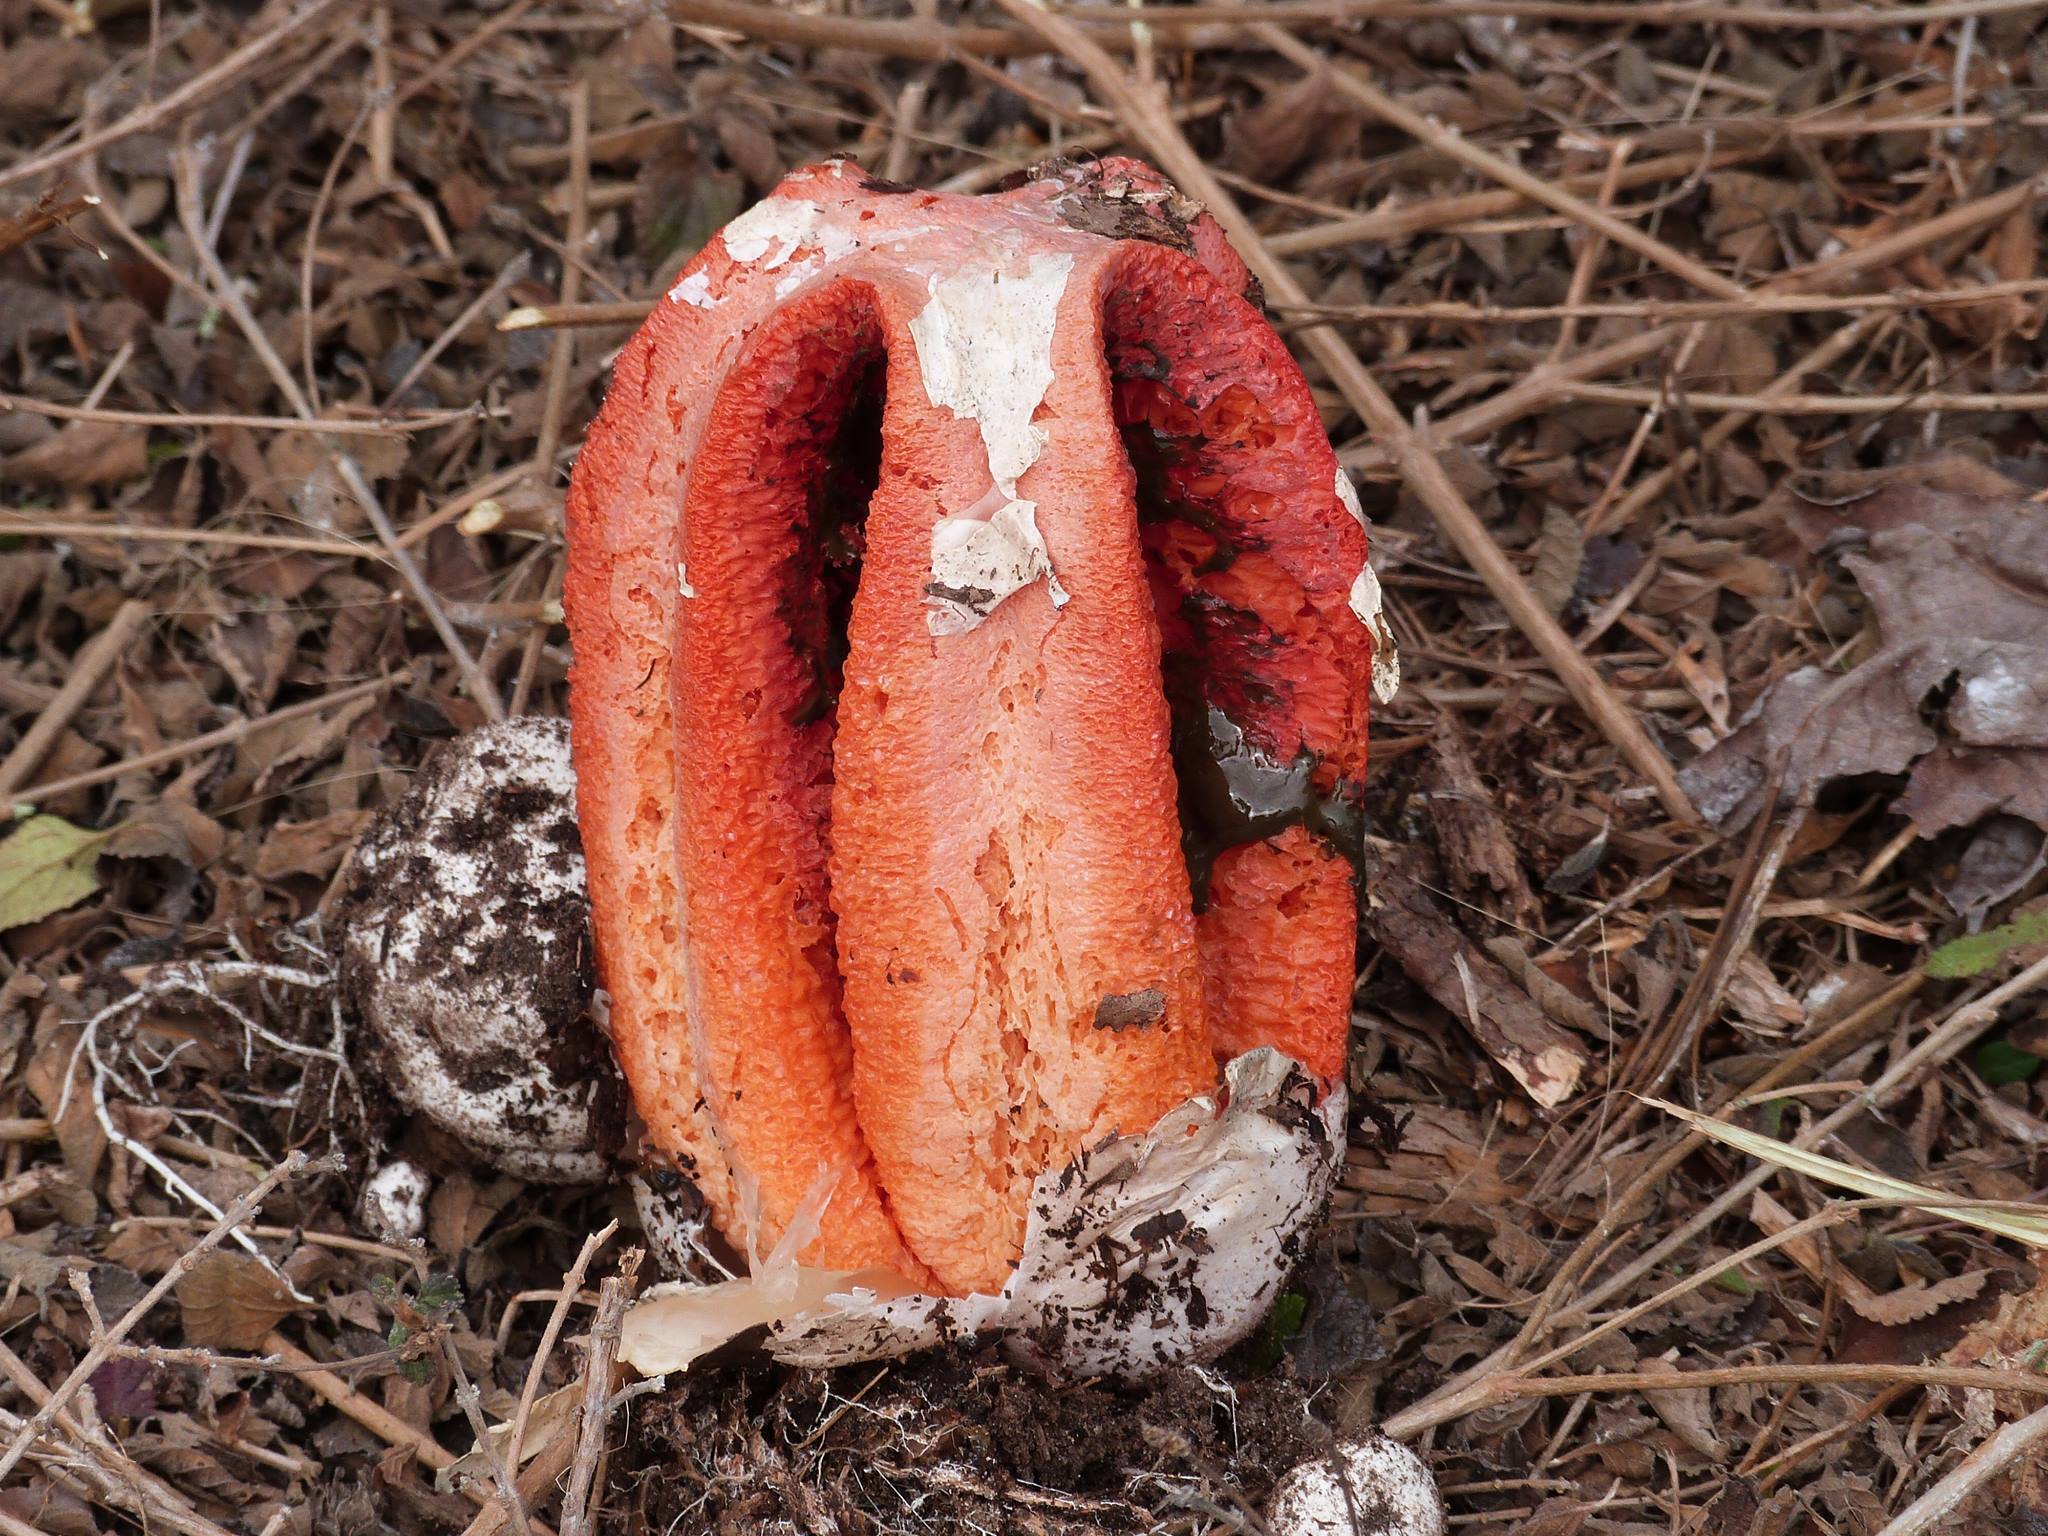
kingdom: Fungi
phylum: Basidiomycota
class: Agaricomycetes
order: Phallales
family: Phallaceae
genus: Clathrus
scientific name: Clathrus columnatus
